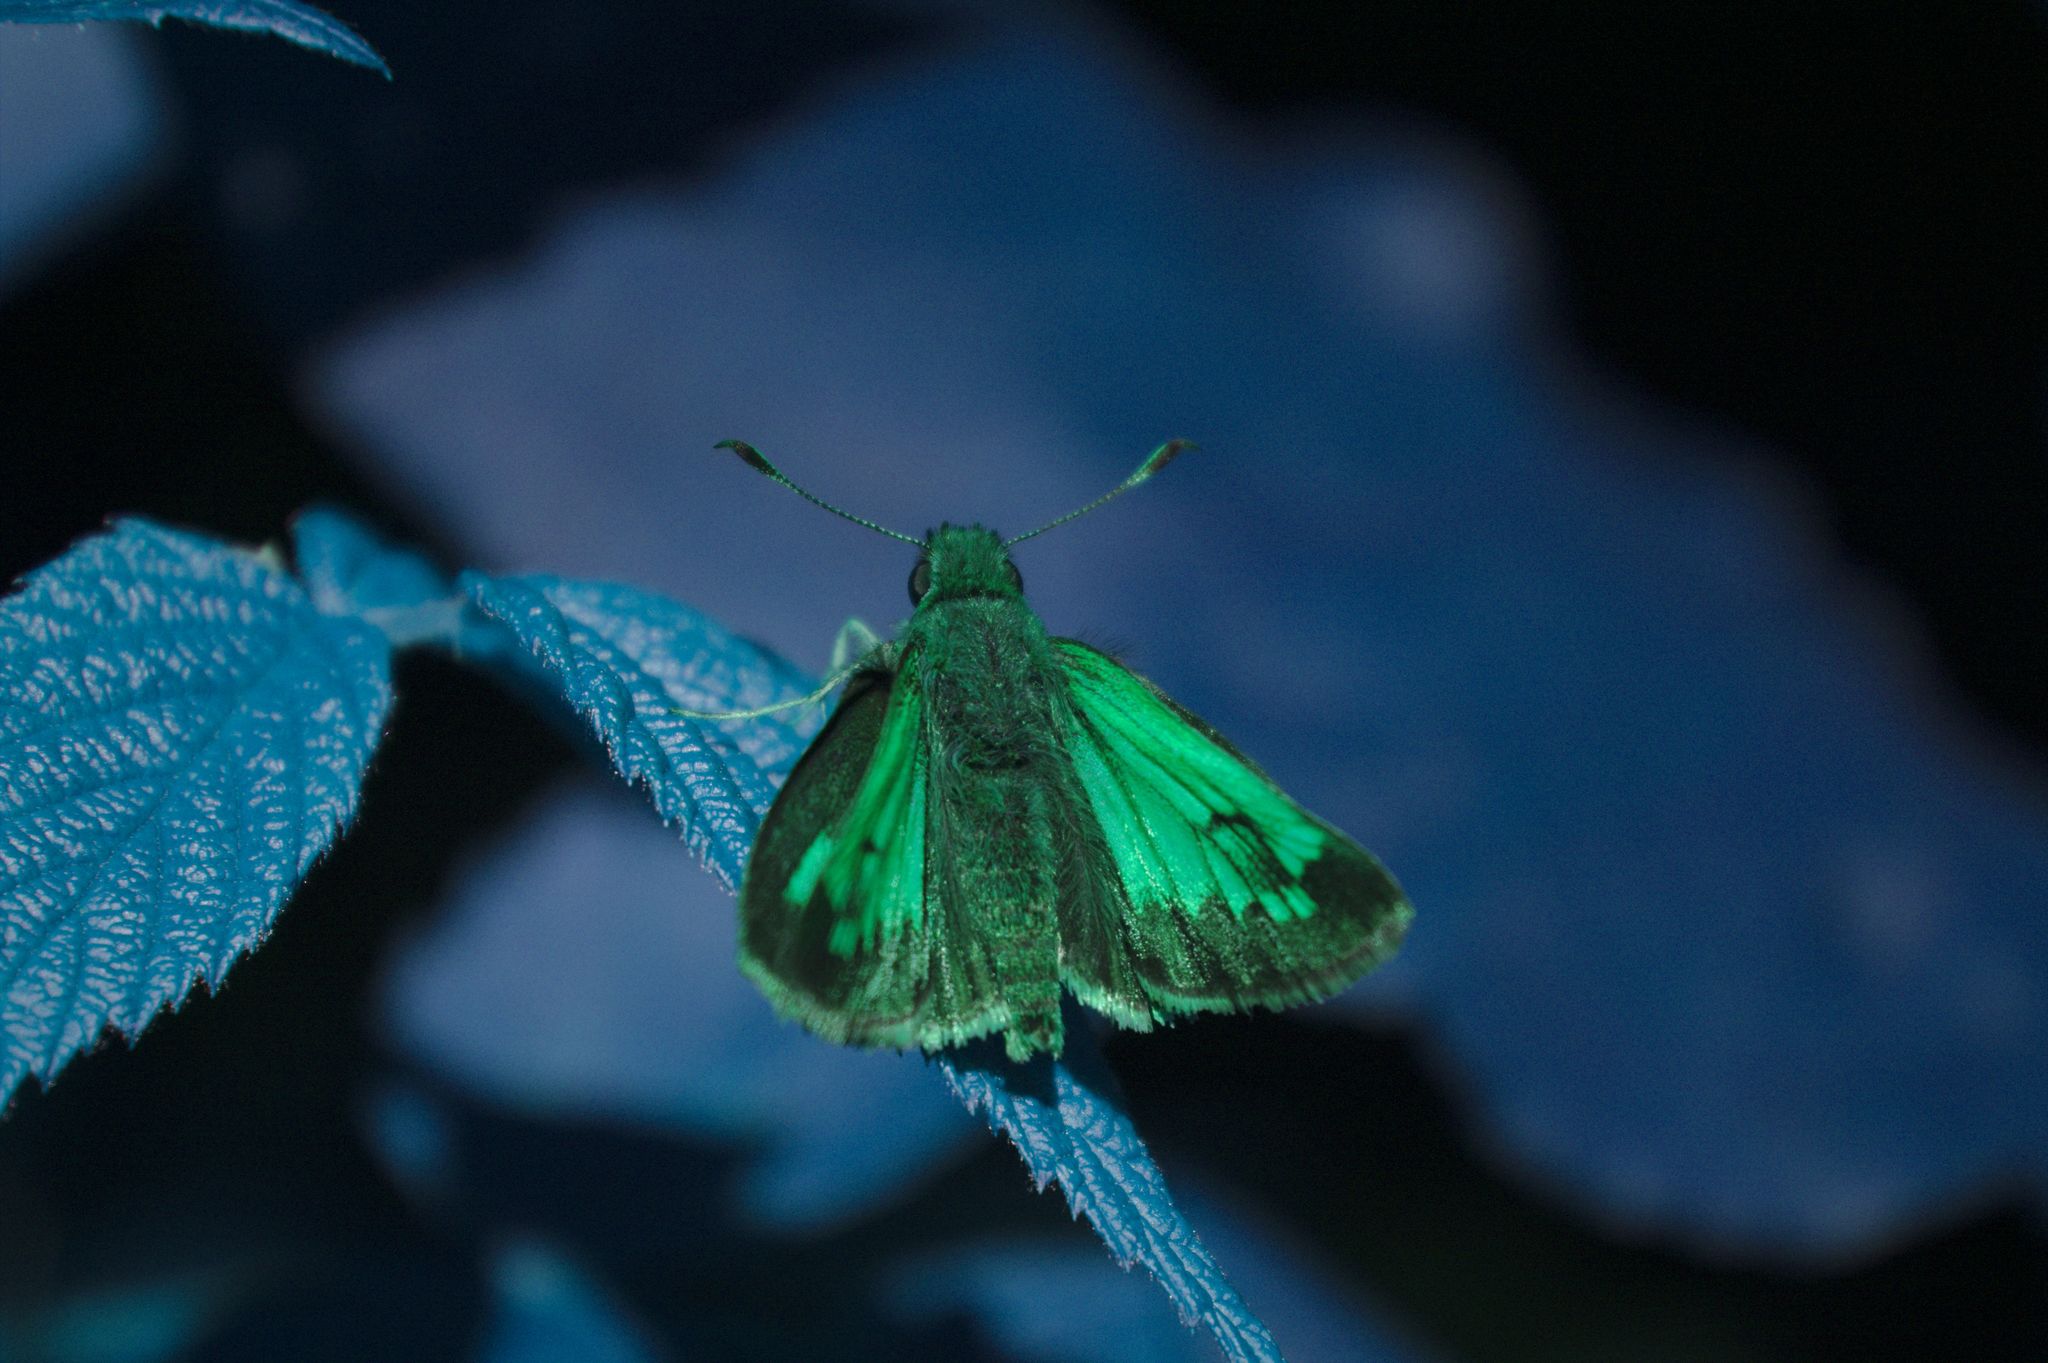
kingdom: Animalia
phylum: Arthropoda
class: Insecta
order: Lepidoptera
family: Hesperiidae
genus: Lon
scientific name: Lon hobomok
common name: Hobomok skipper
